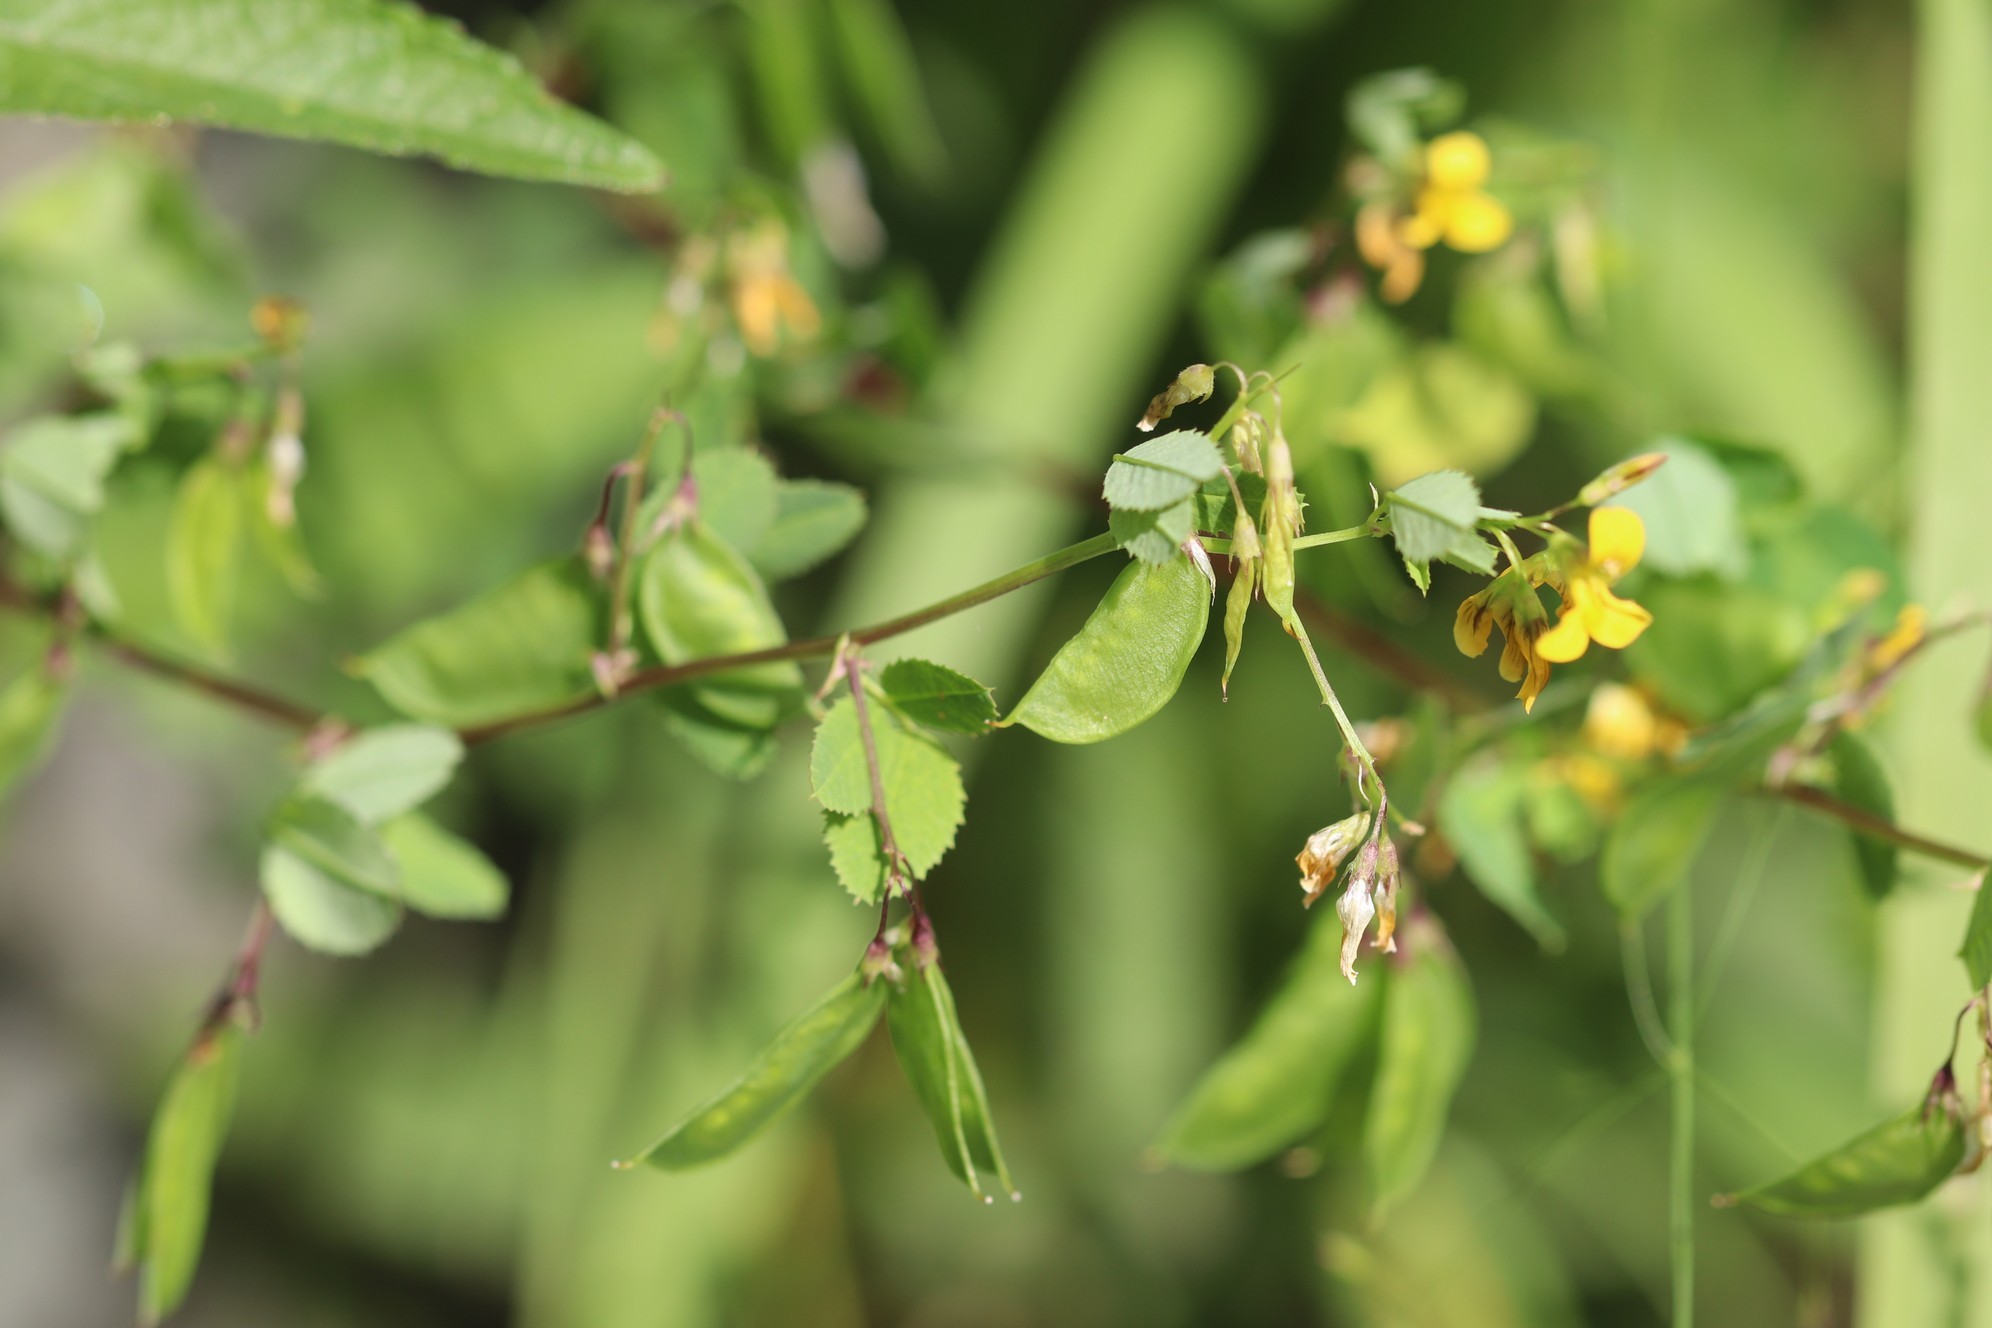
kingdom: Plantae
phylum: Tracheophyta
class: Magnoliopsida
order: Fabales
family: Fabaceae
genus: Medicago
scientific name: Medicago platycarpos
